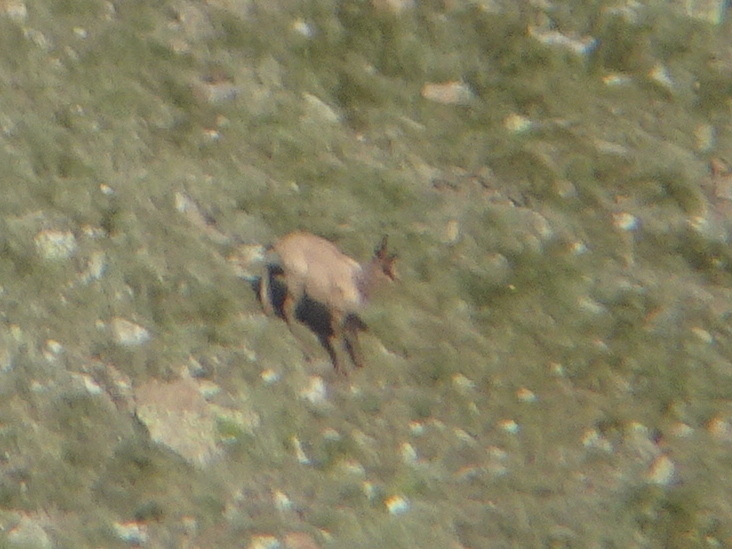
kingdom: Animalia
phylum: Chordata
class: Mammalia
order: Artiodactyla
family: Bovidae
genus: Rupicapra
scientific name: Rupicapra pyrenaica
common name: Pyrenean chamois
